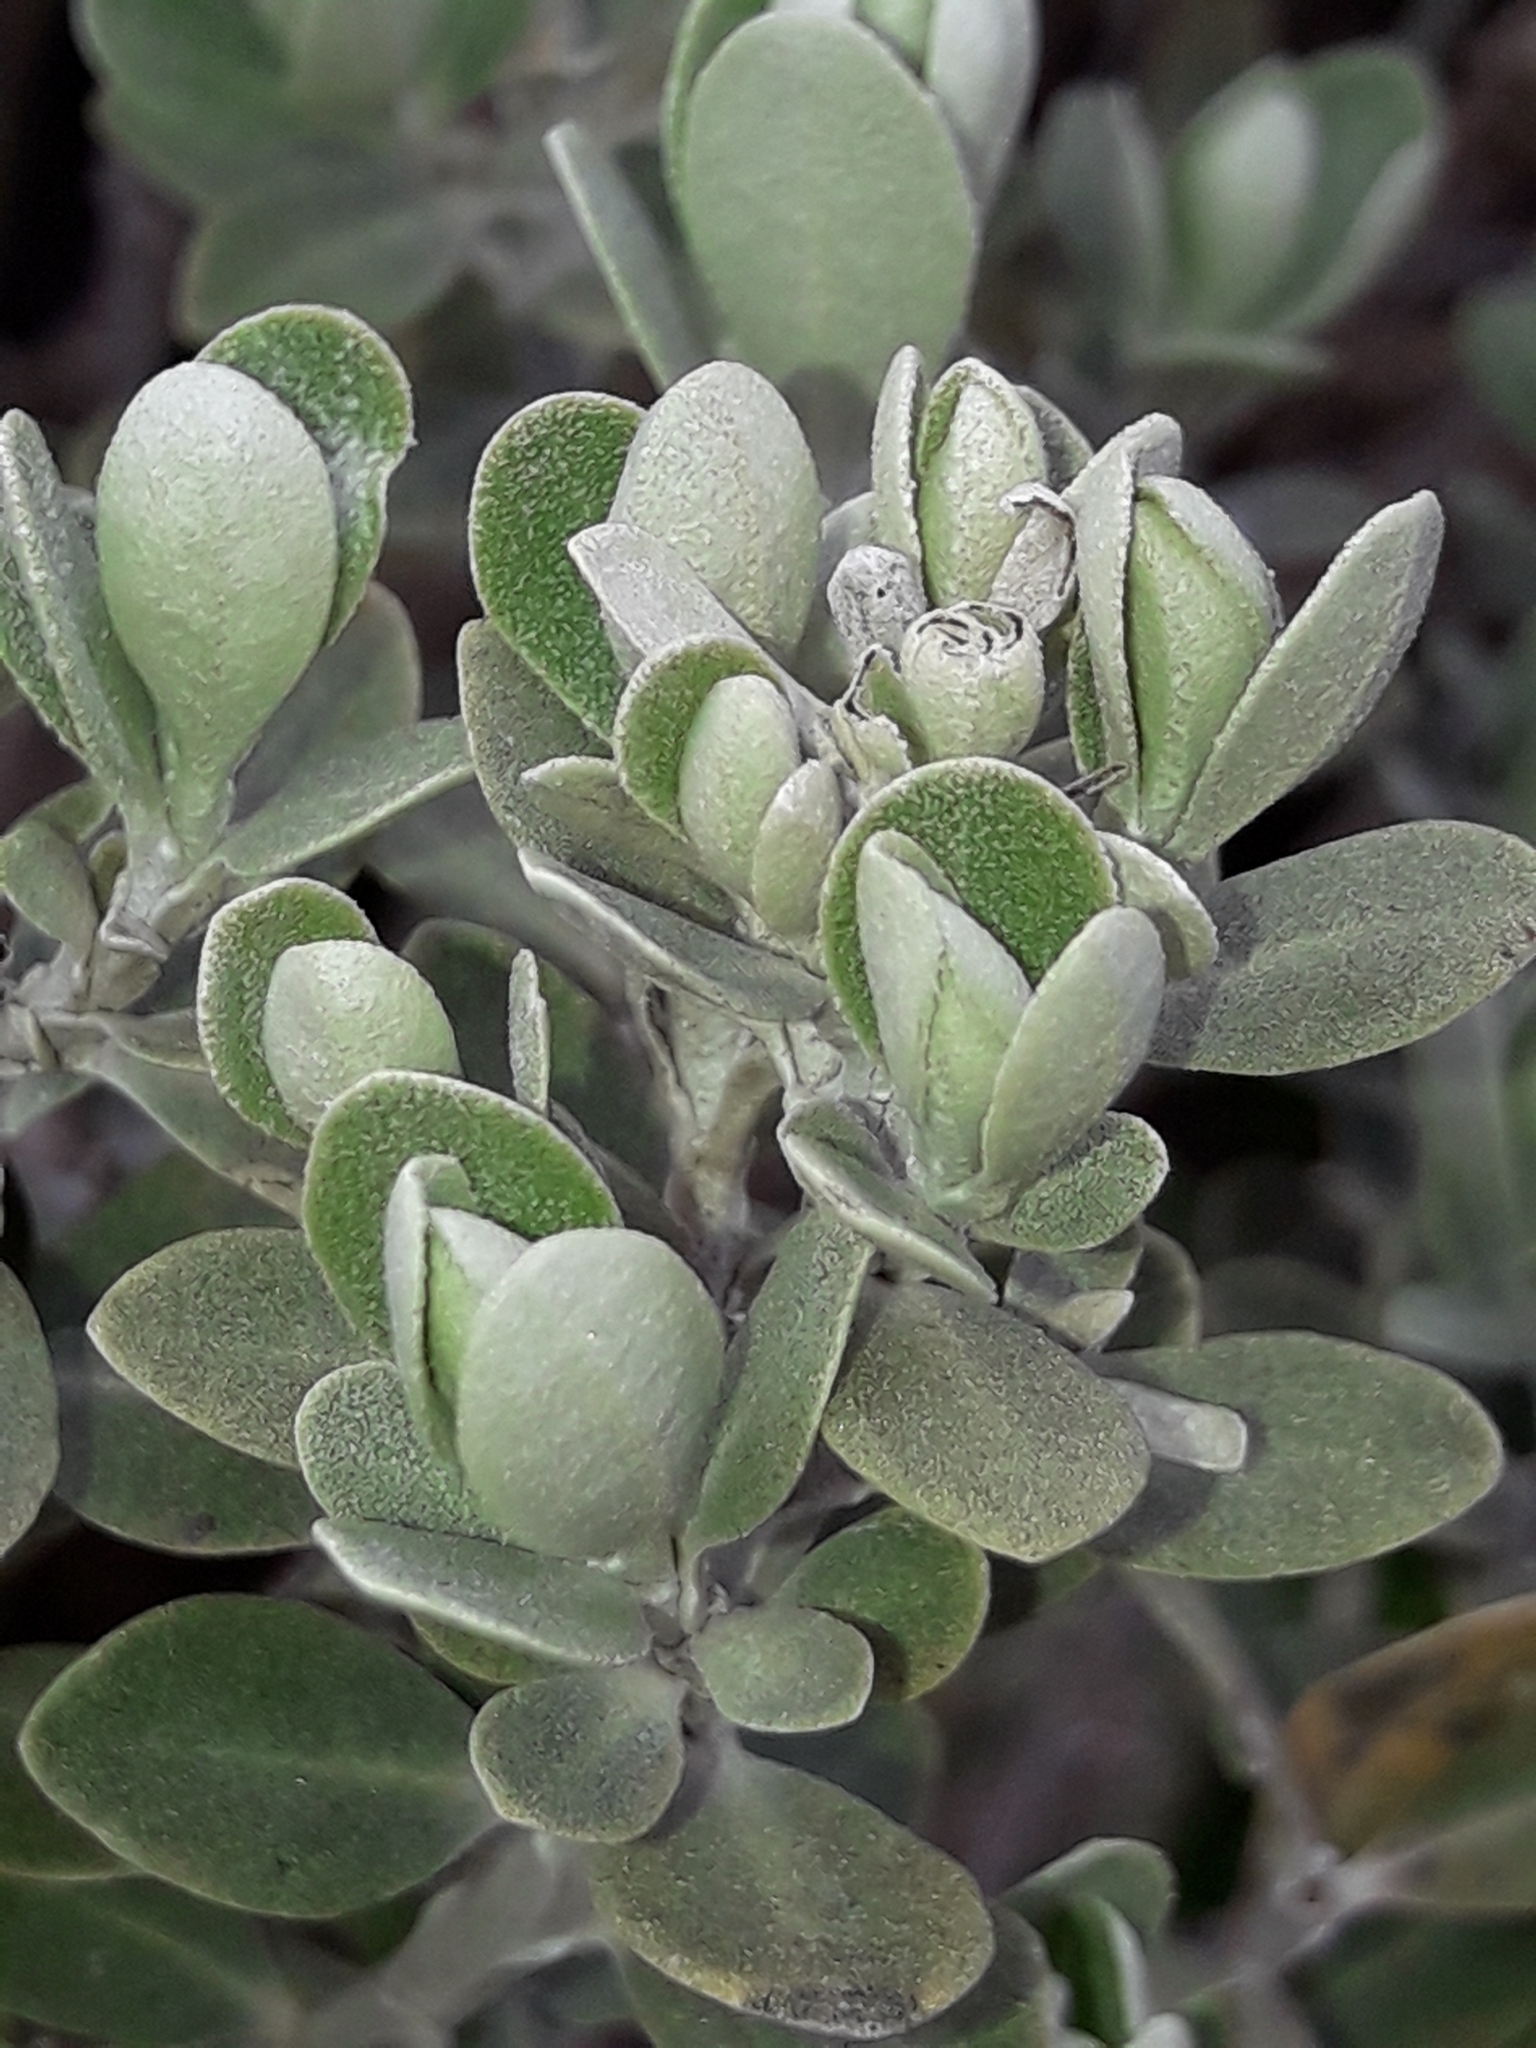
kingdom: Plantae
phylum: Tracheophyta
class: Magnoliopsida
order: Asterales
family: Asteraceae
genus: Olearia
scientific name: Olearia moschata
